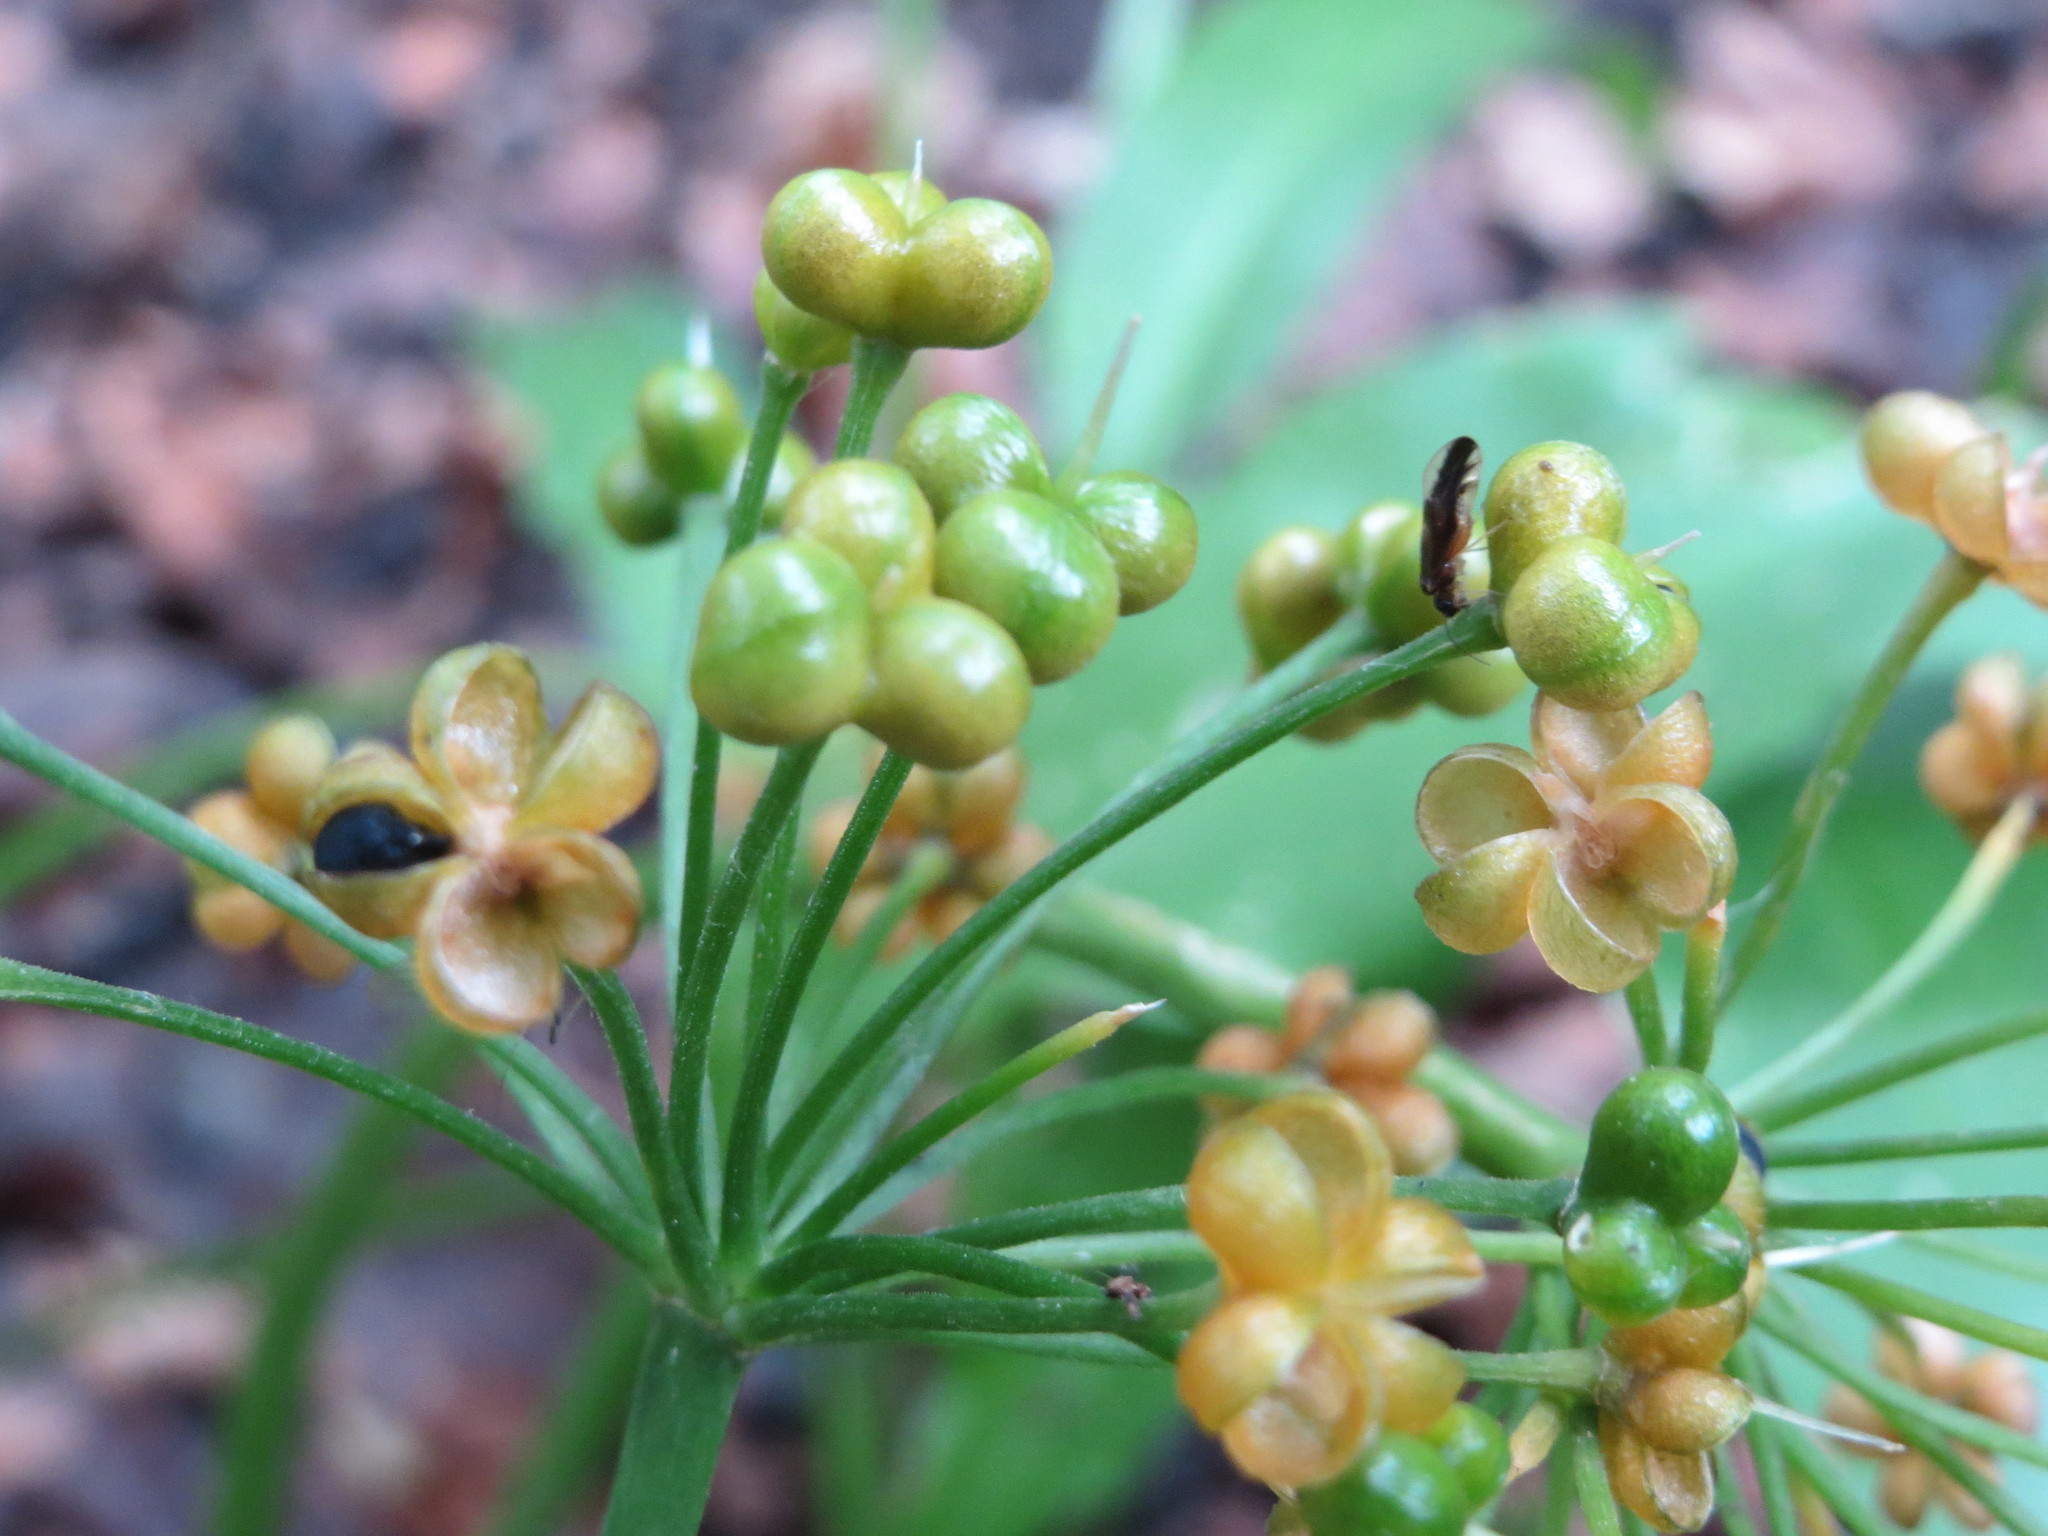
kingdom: Plantae
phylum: Tracheophyta
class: Liliopsida
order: Asparagales
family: Amaryllidaceae
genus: Allium
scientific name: Allium ursinum
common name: Ramsons
